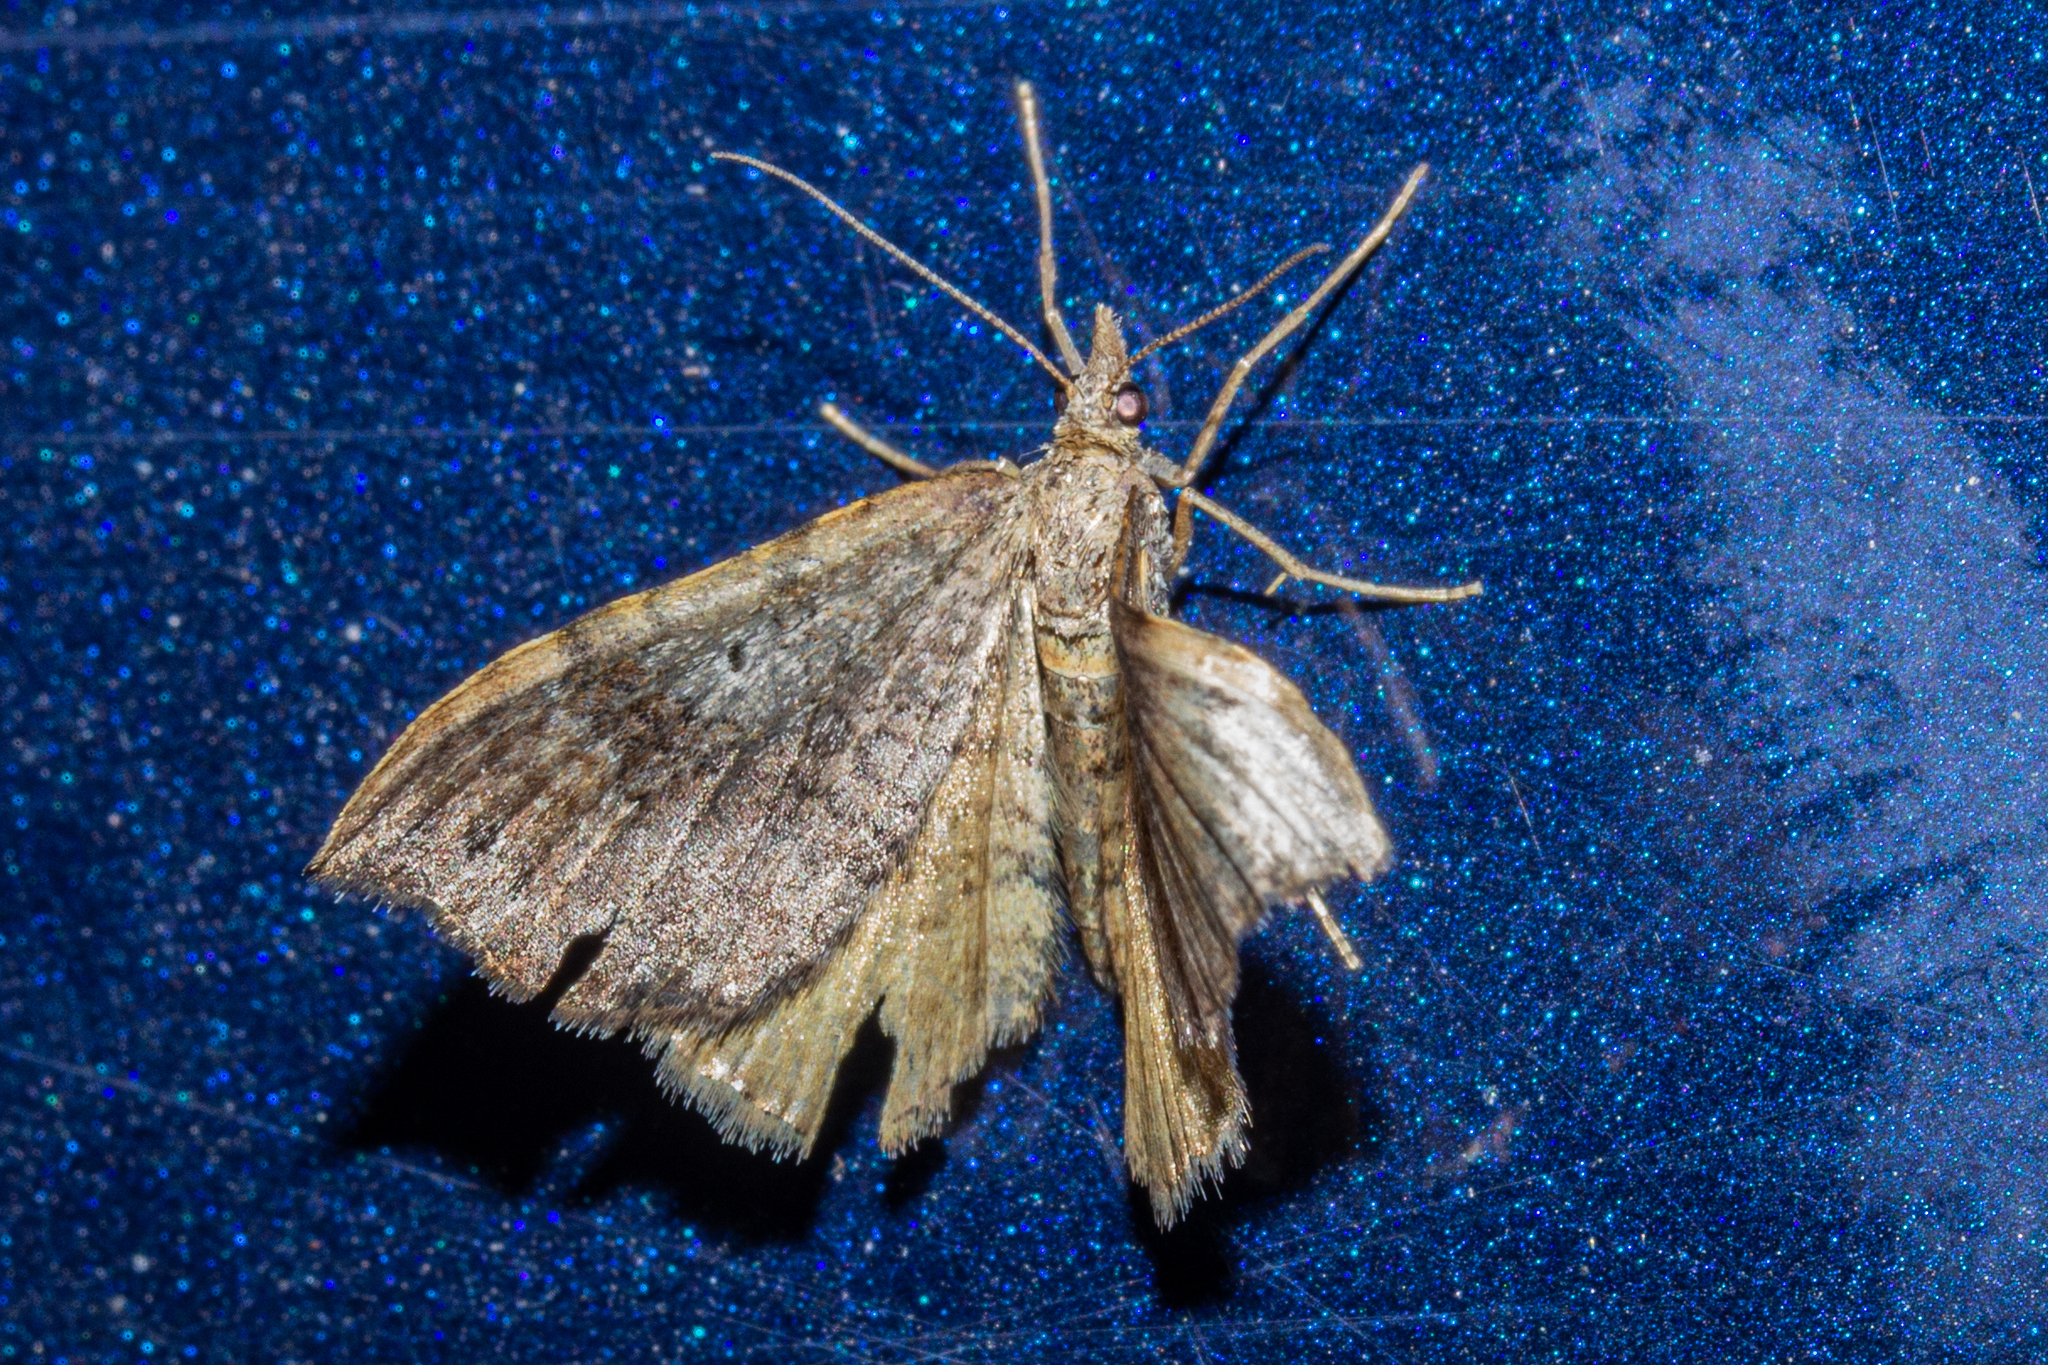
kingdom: Animalia
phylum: Arthropoda
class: Insecta
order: Lepidoptera
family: Geometridae
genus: Homodotis
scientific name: Homodotis megaspilata
